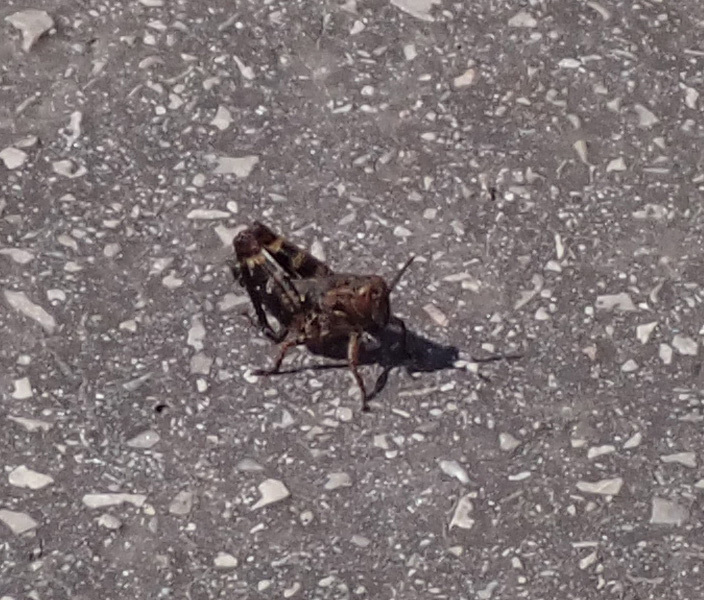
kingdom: Animalia
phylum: Arthropoda
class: Insecta
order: Orthoptera
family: Acrididae
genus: Calliptamus
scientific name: Calliptamus italicus
